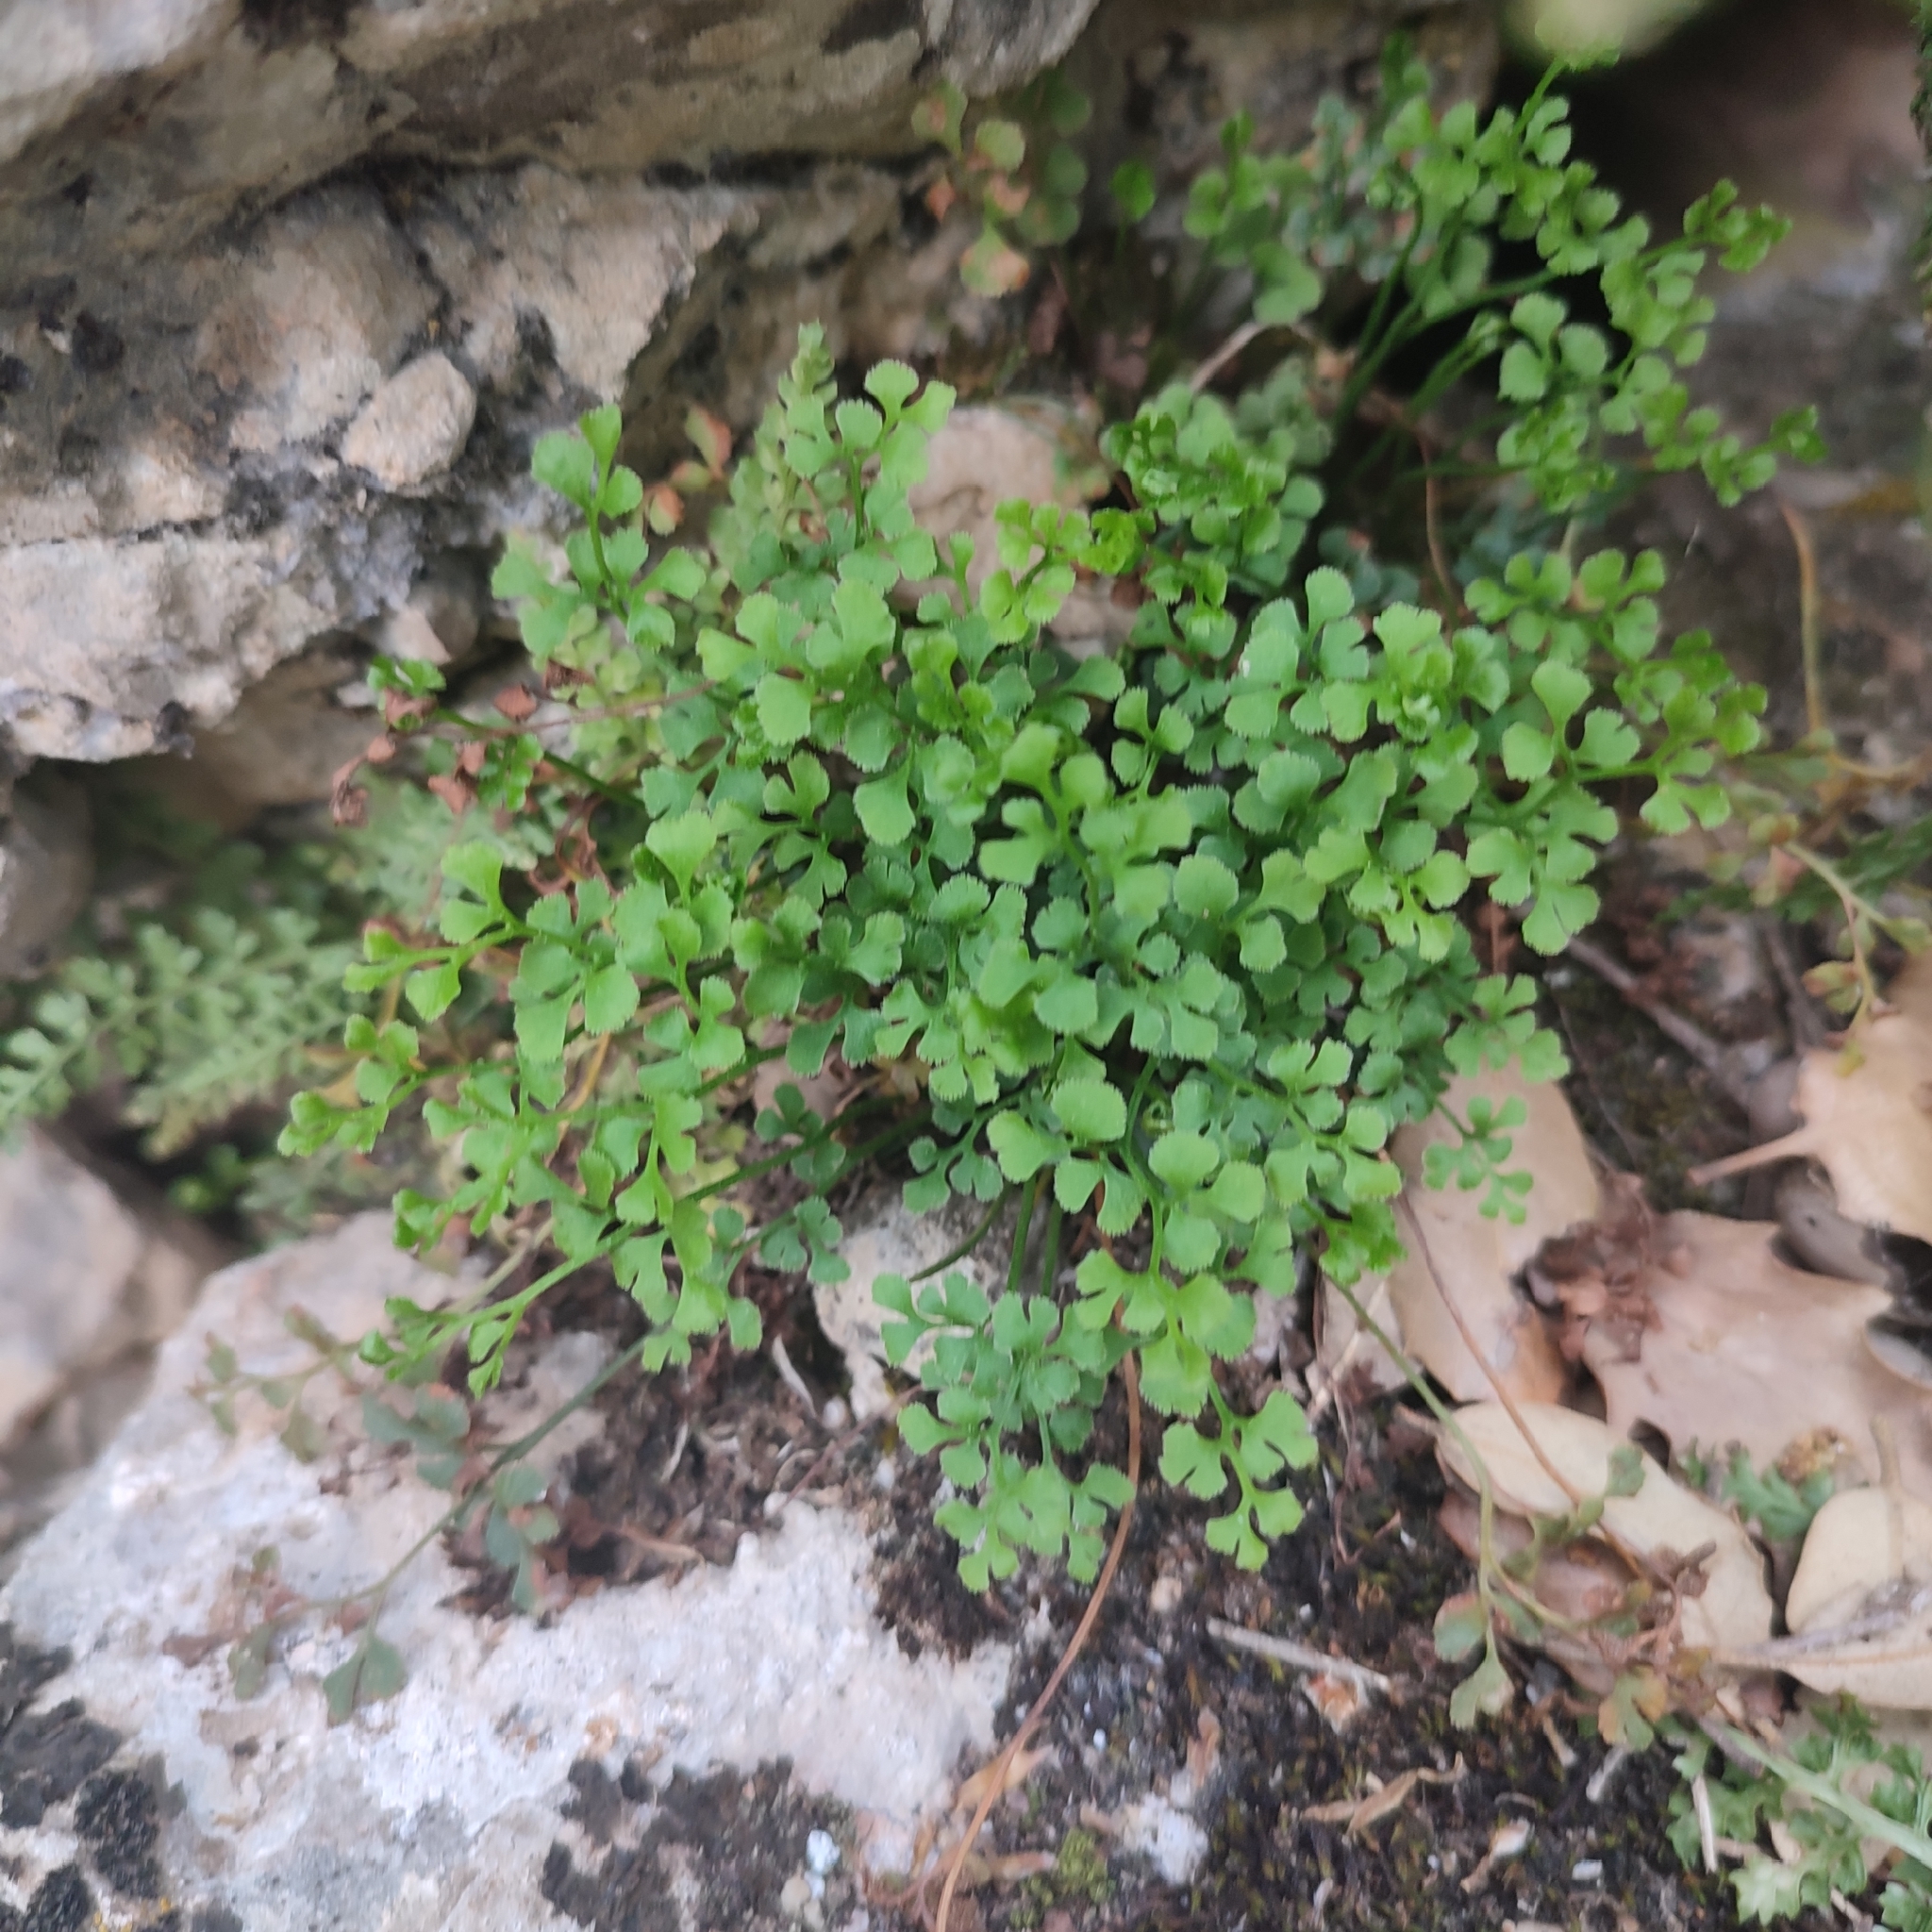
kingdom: Plantae
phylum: Tracheophyta
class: Polypodiopsida
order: Polypodiales
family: Aspleniaceae
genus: Asplenium
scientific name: Asplenium ruta-muraria
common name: Wall-rue
